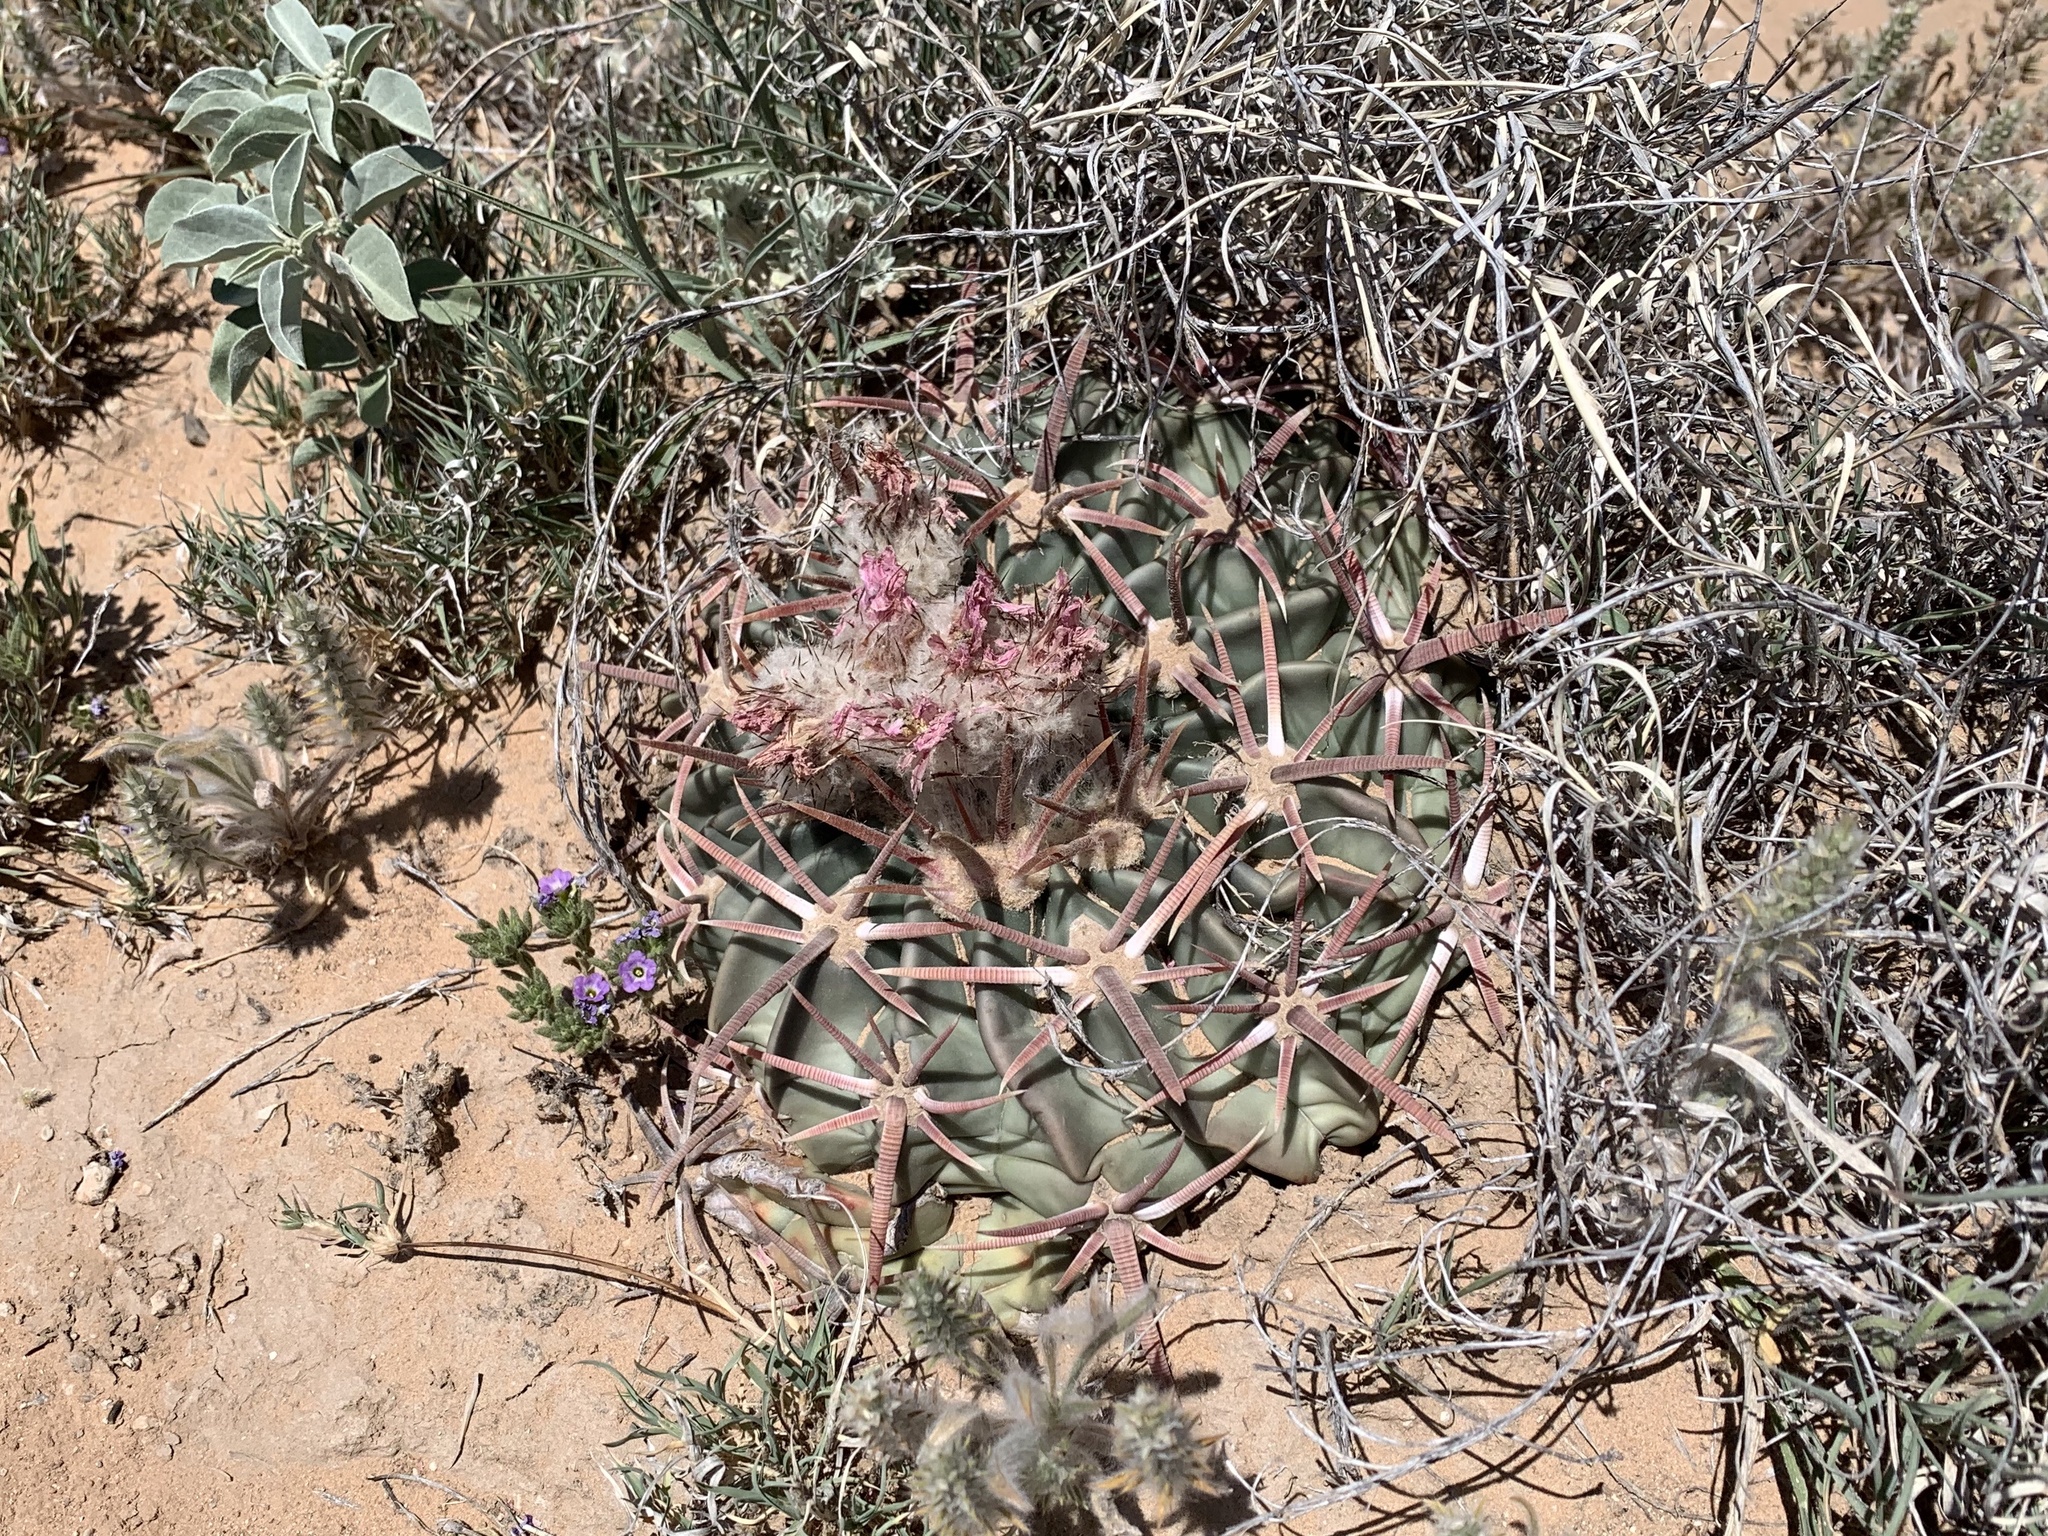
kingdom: Plantae
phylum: Tracheophyta
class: Magnoliopsida
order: Caryophyllales
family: Cactaceae
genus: Echinocactus
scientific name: Echinocactus texensis
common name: Devil's pincushion
